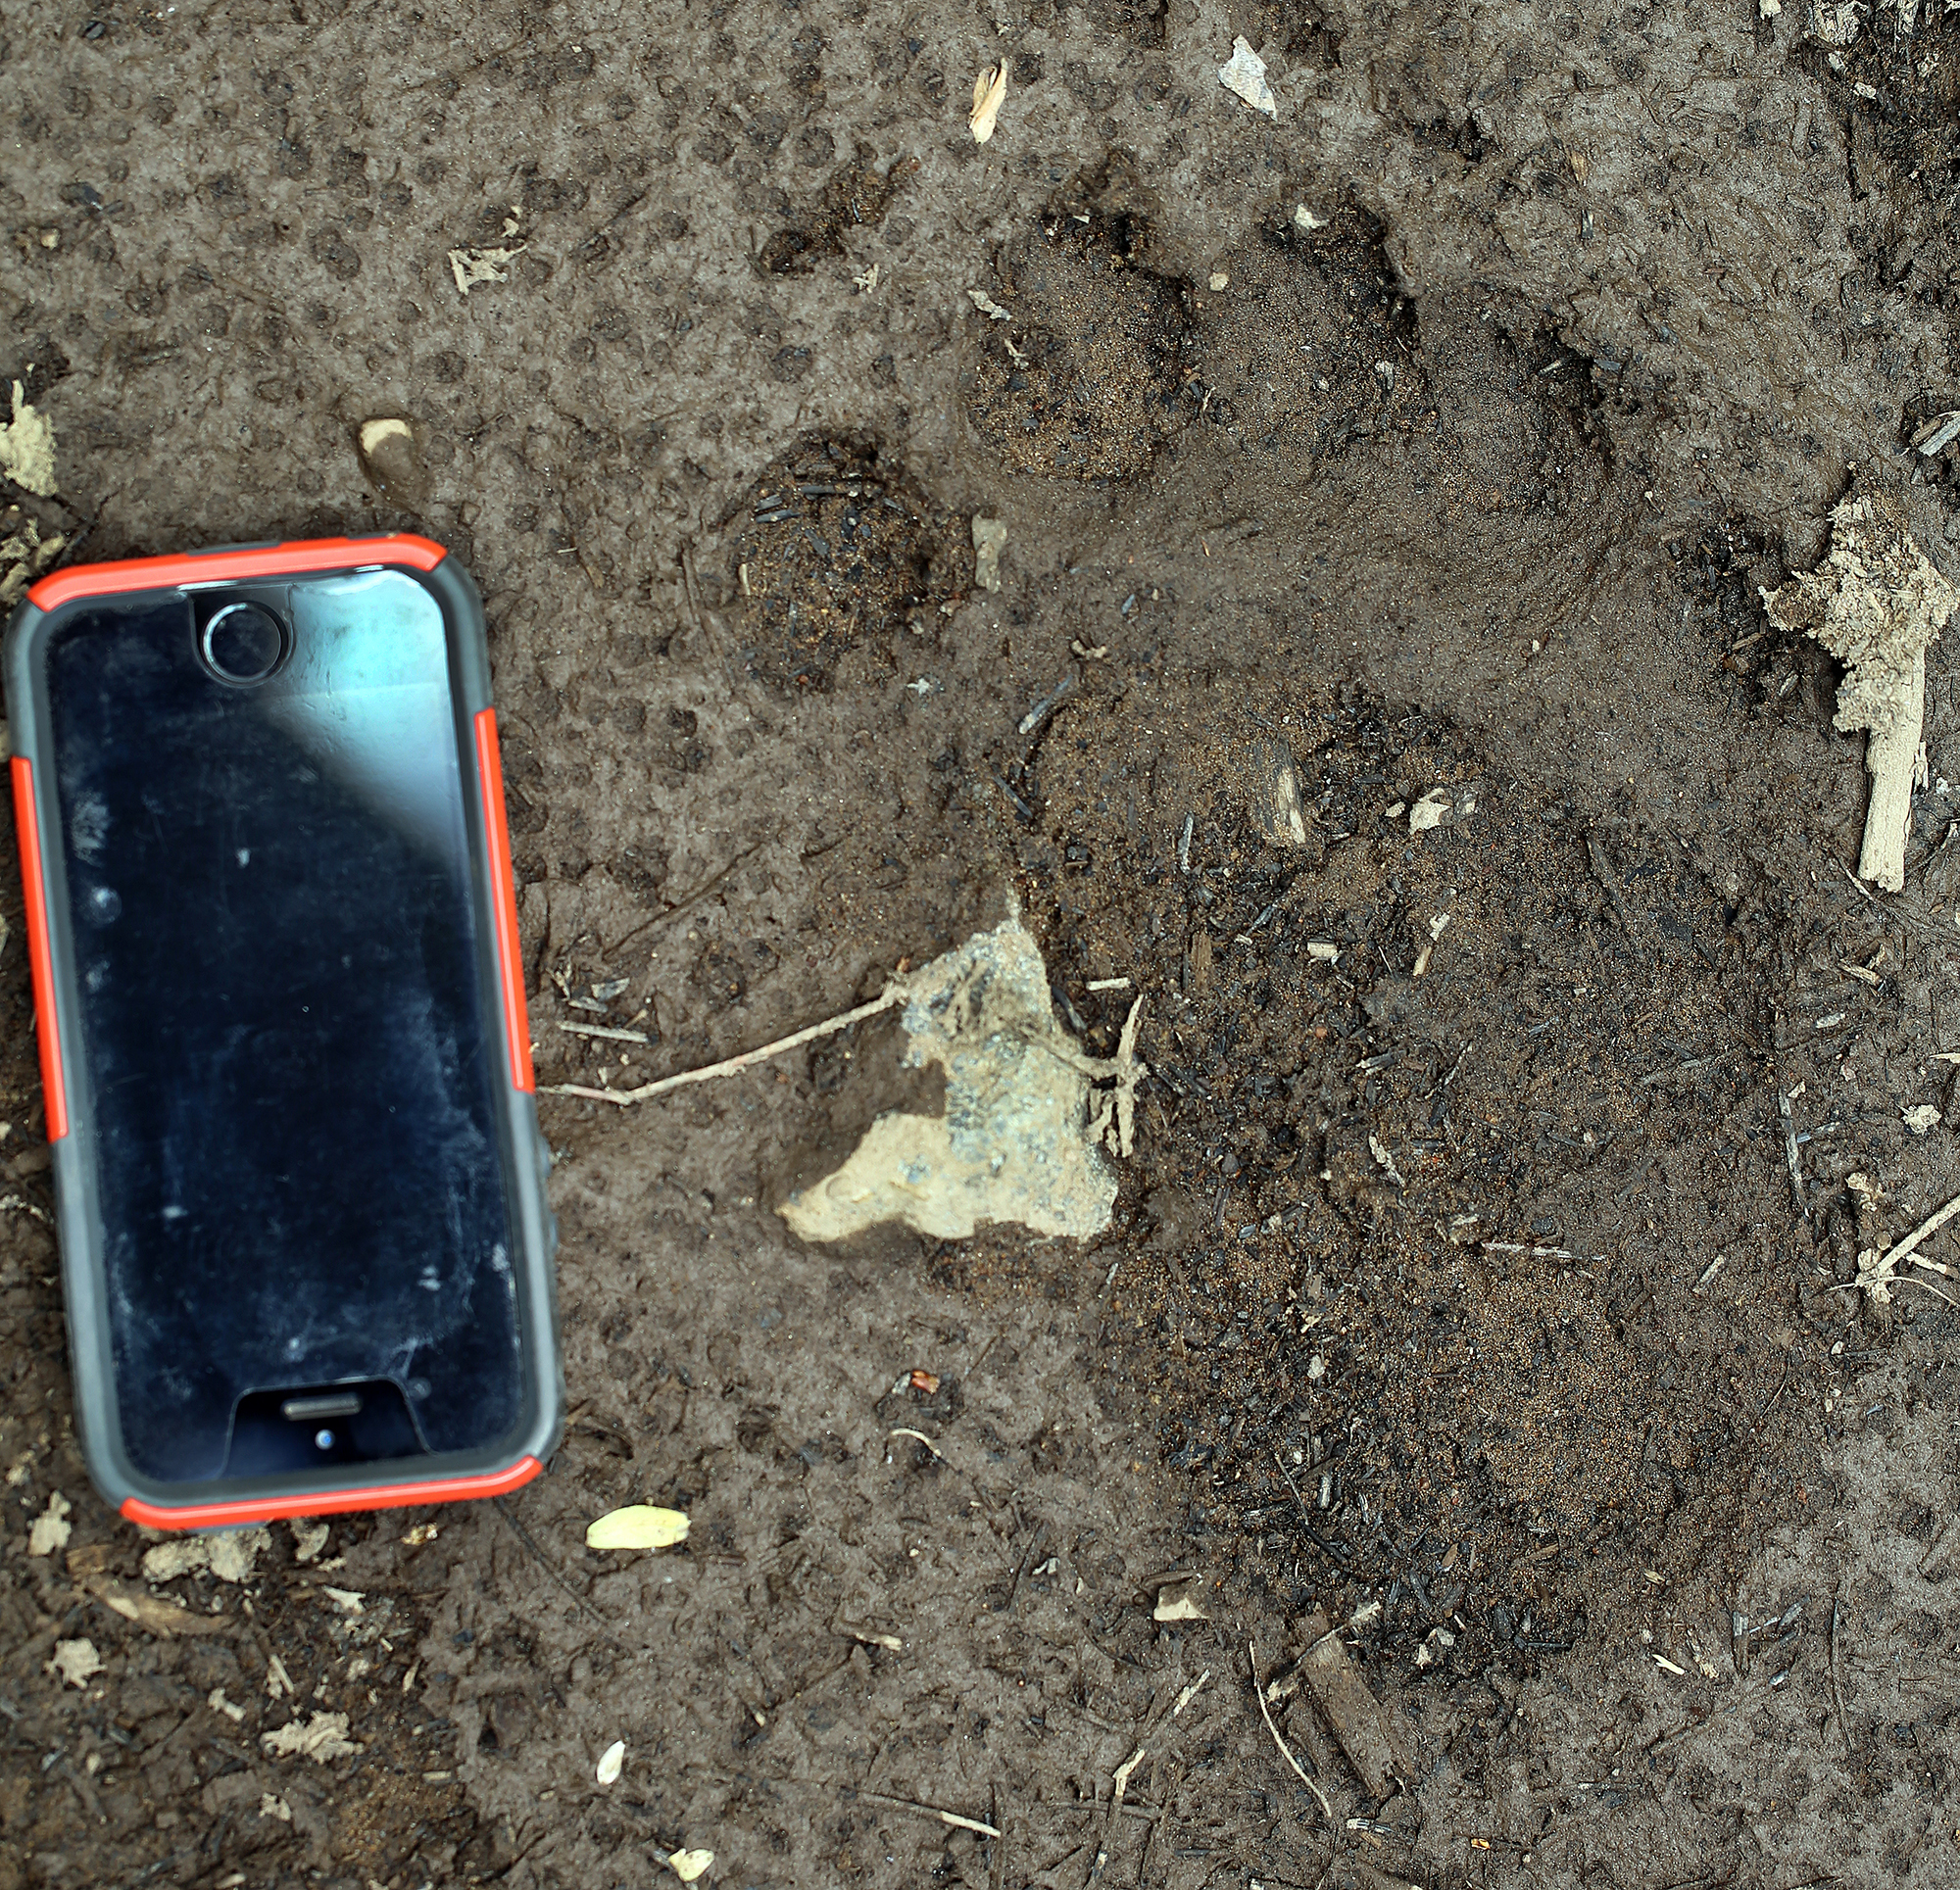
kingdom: Animalia
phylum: Chordata
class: Mammalia
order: Carnivora
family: Ursidae
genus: Ursus
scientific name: Ursus americanus
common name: American black bear
